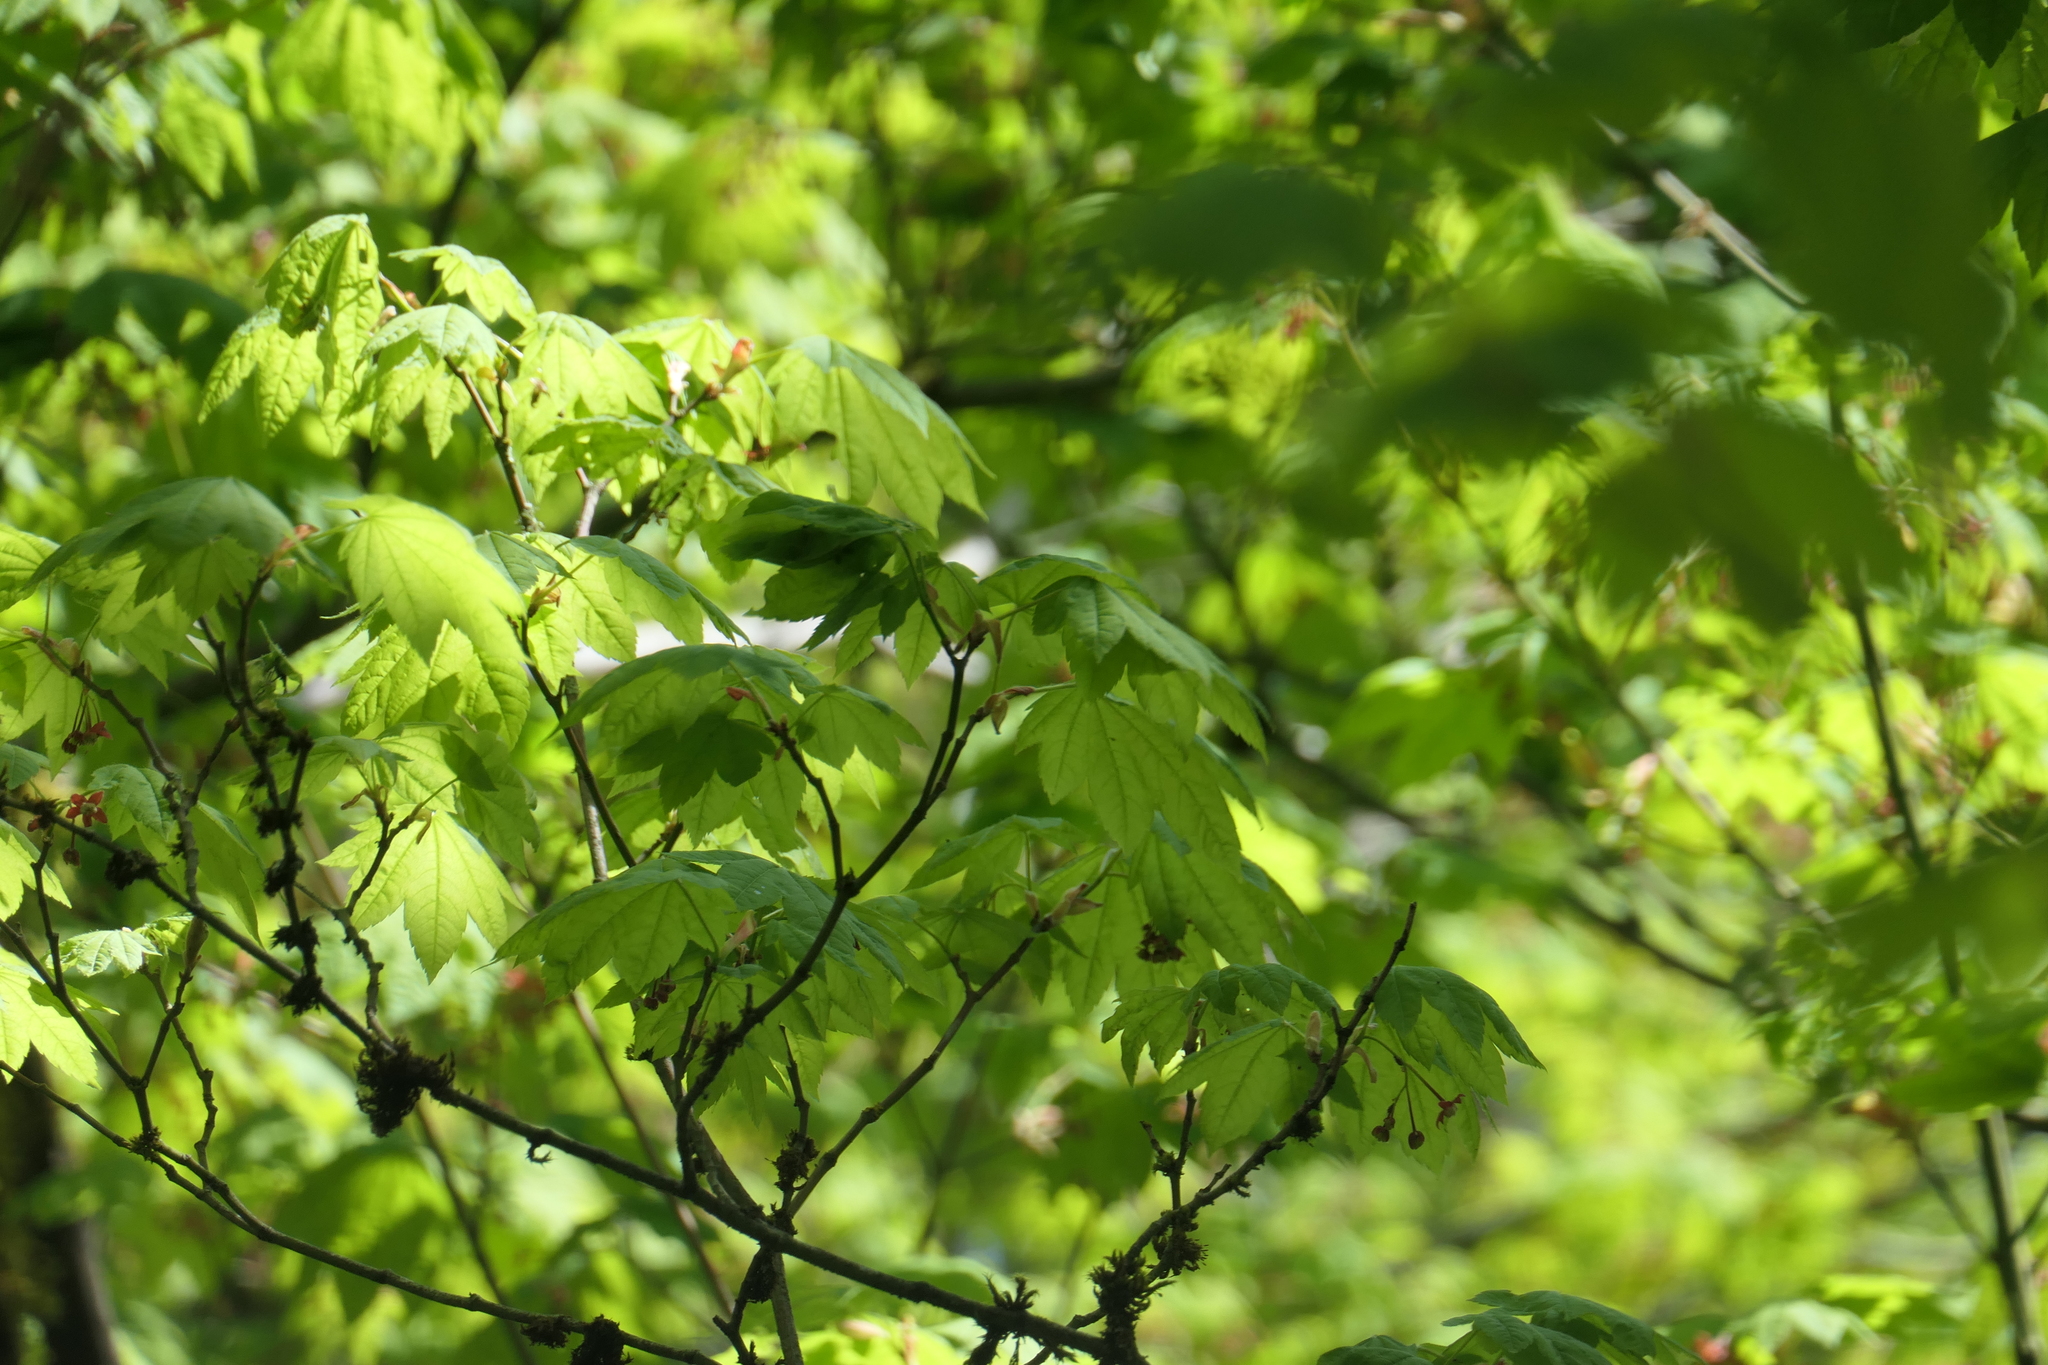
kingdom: Plantae
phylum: Tracheophyta
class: Magnoliopsida
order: Sapindales
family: Sapindaceae
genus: Acer
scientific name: Acer circinatum
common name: Vine maple
